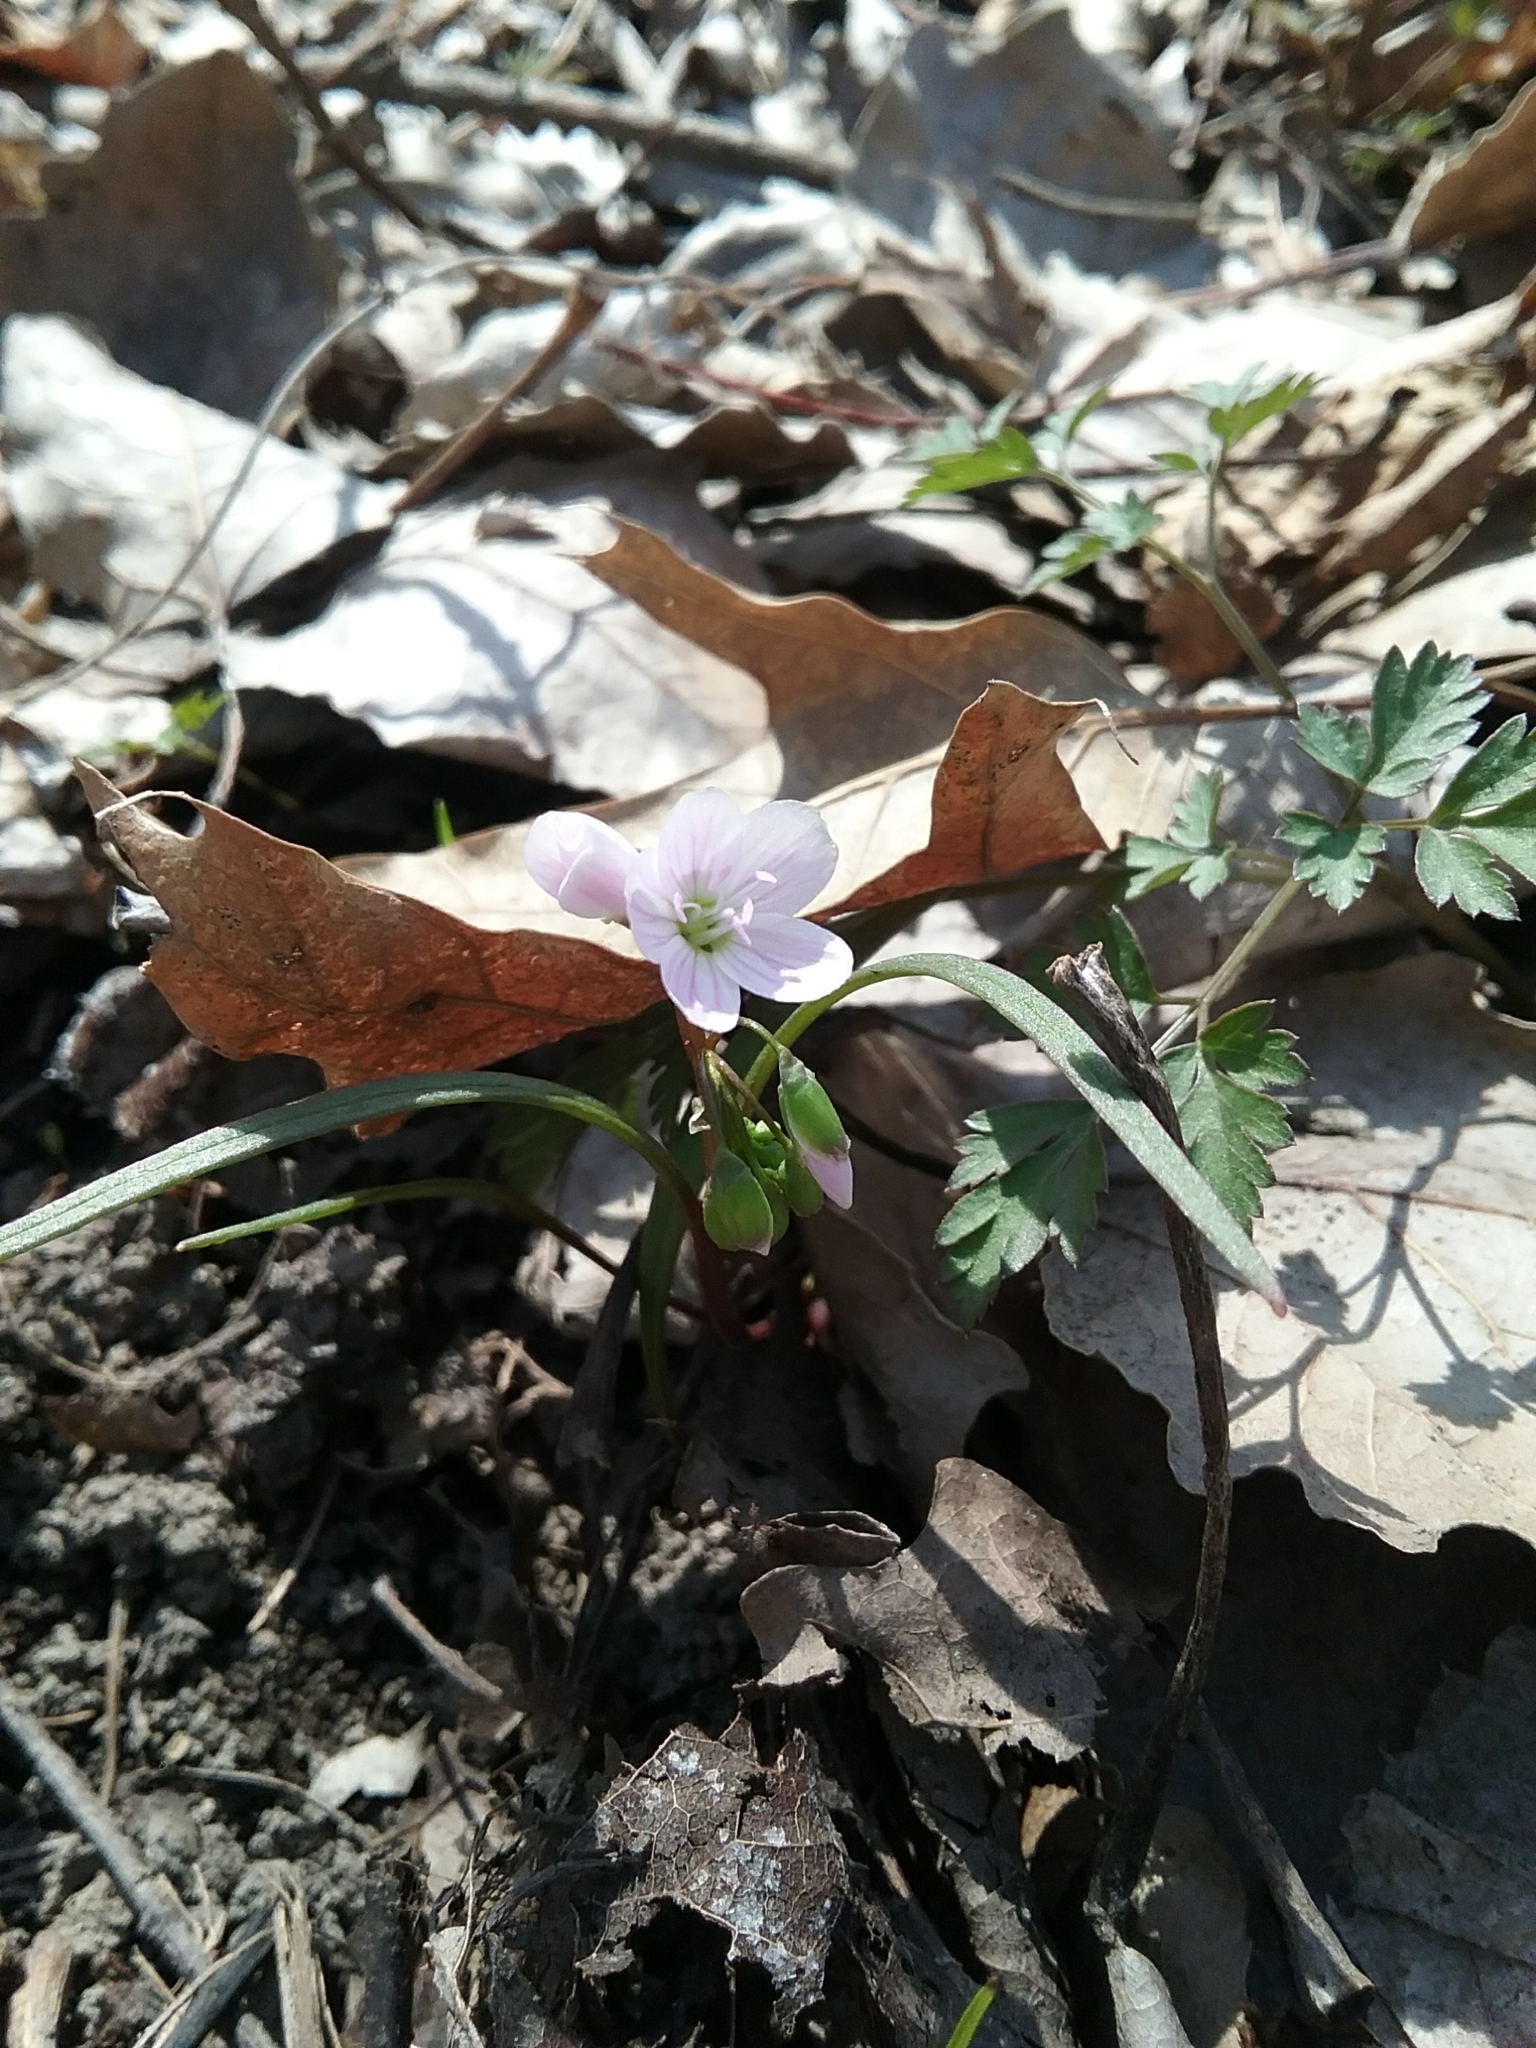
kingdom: Plantae
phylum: Tracheophyta
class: Magnoliopsida
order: Caryophyllales
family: Montiaceae
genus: Claytonia
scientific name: Claytonia virginica
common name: Virginia springbeauty
